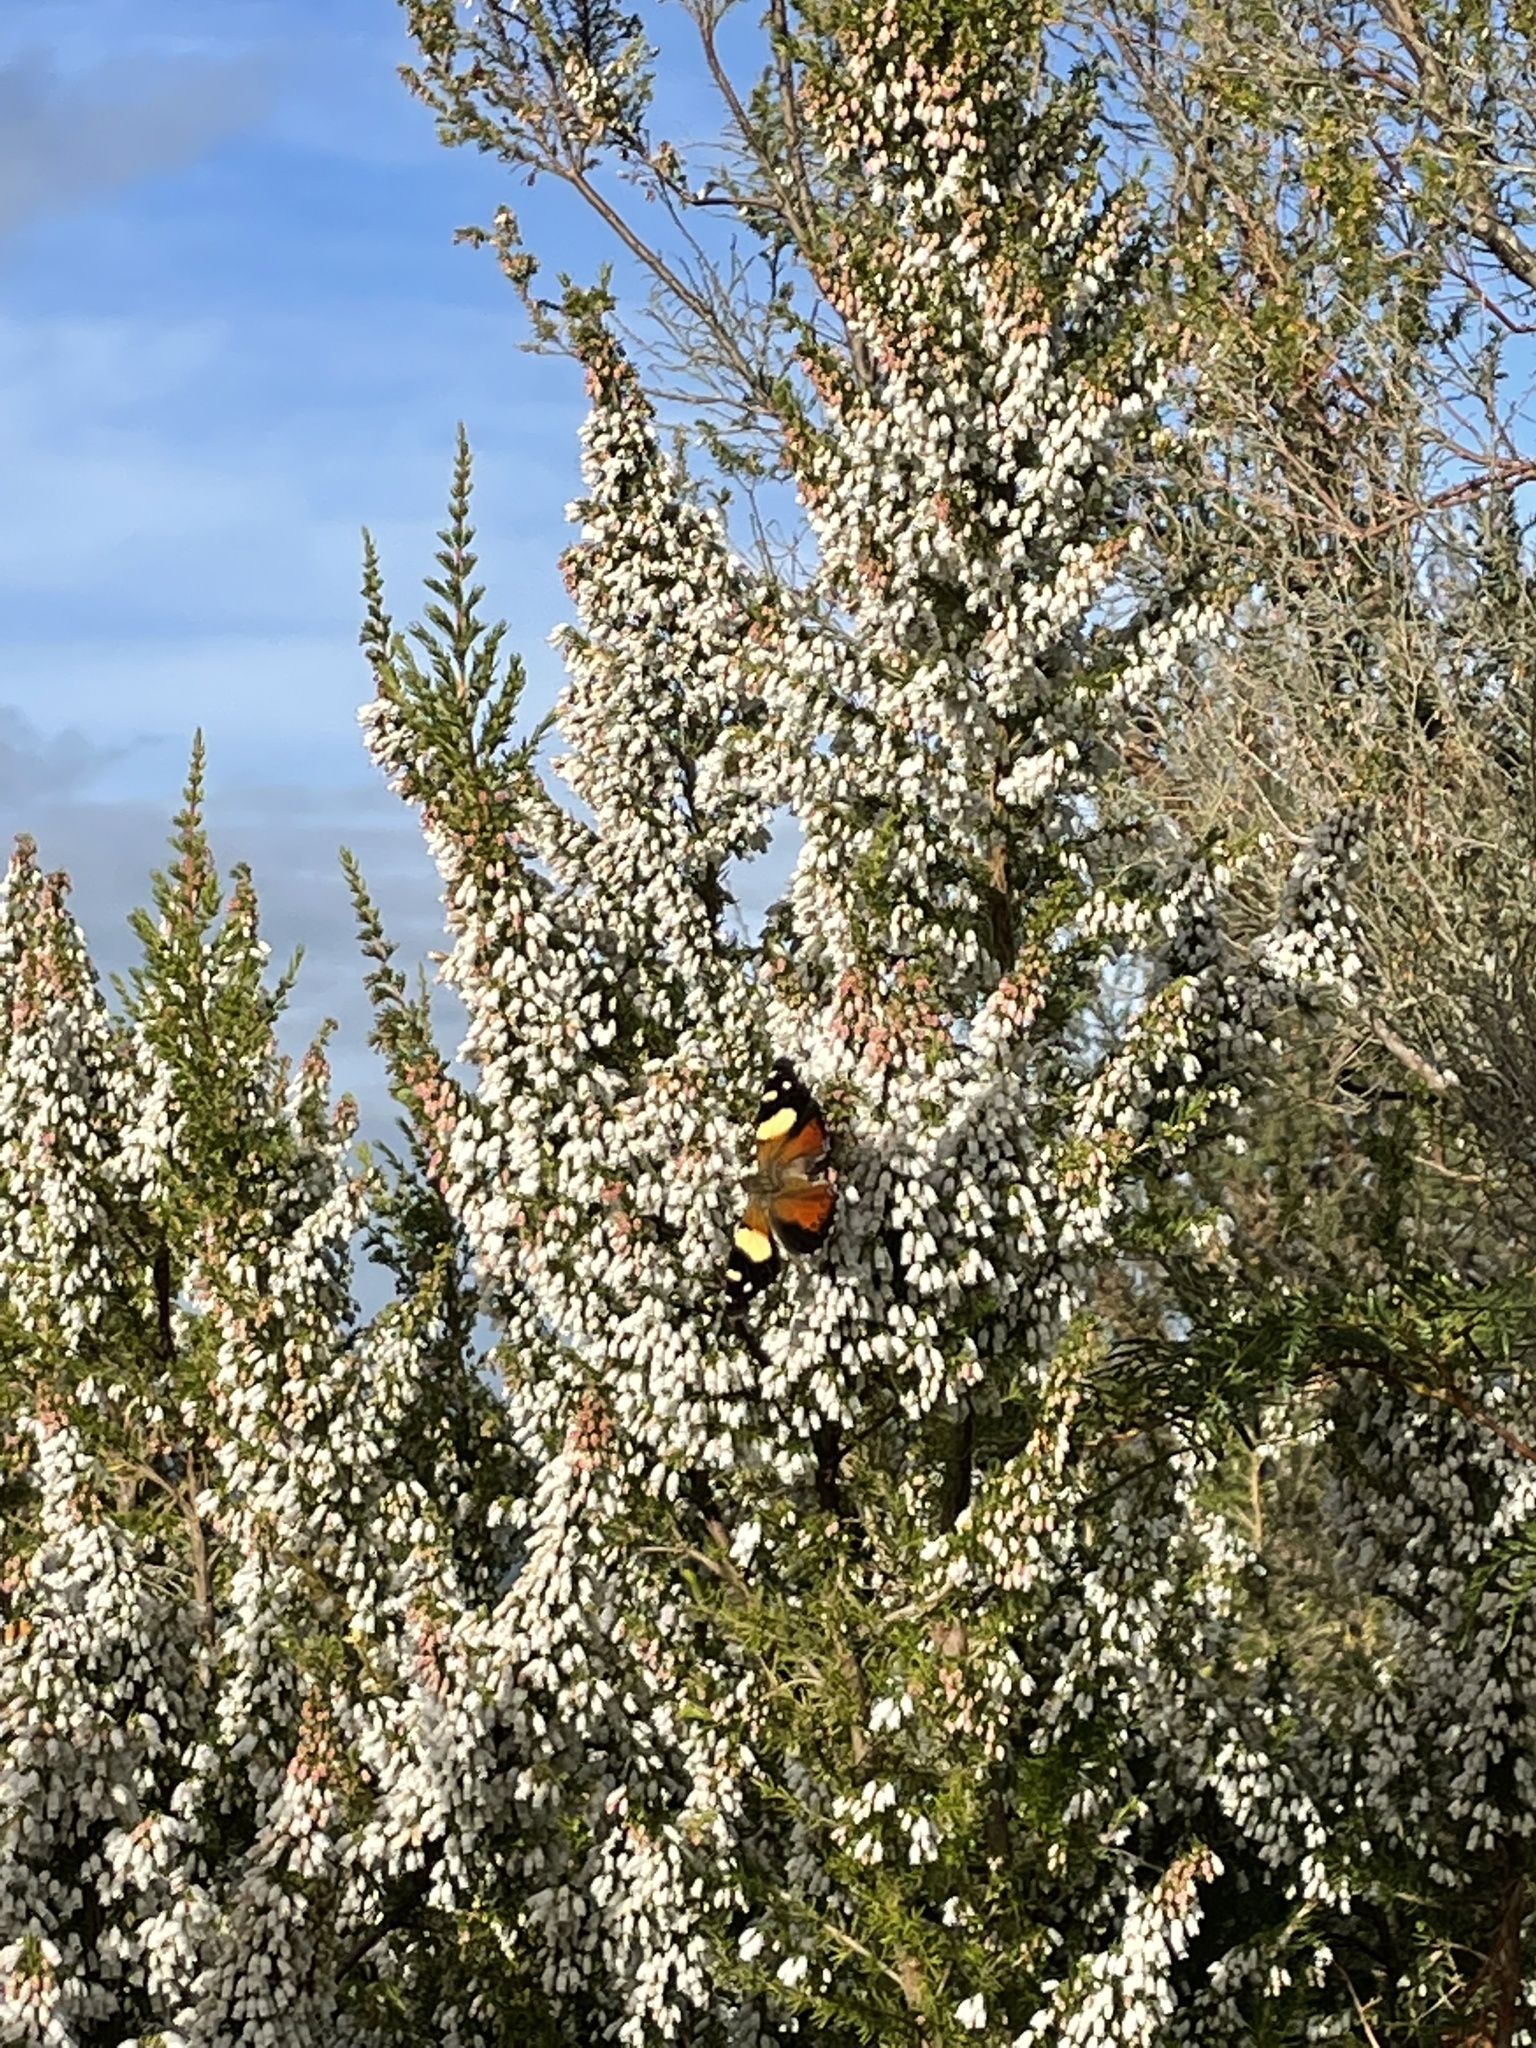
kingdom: Animalia
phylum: Arthropoda
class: Insecta
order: Lepidoptera
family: Nymphalidae
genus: Vanessa
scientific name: Vanessa itea
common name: Yellow admiral
